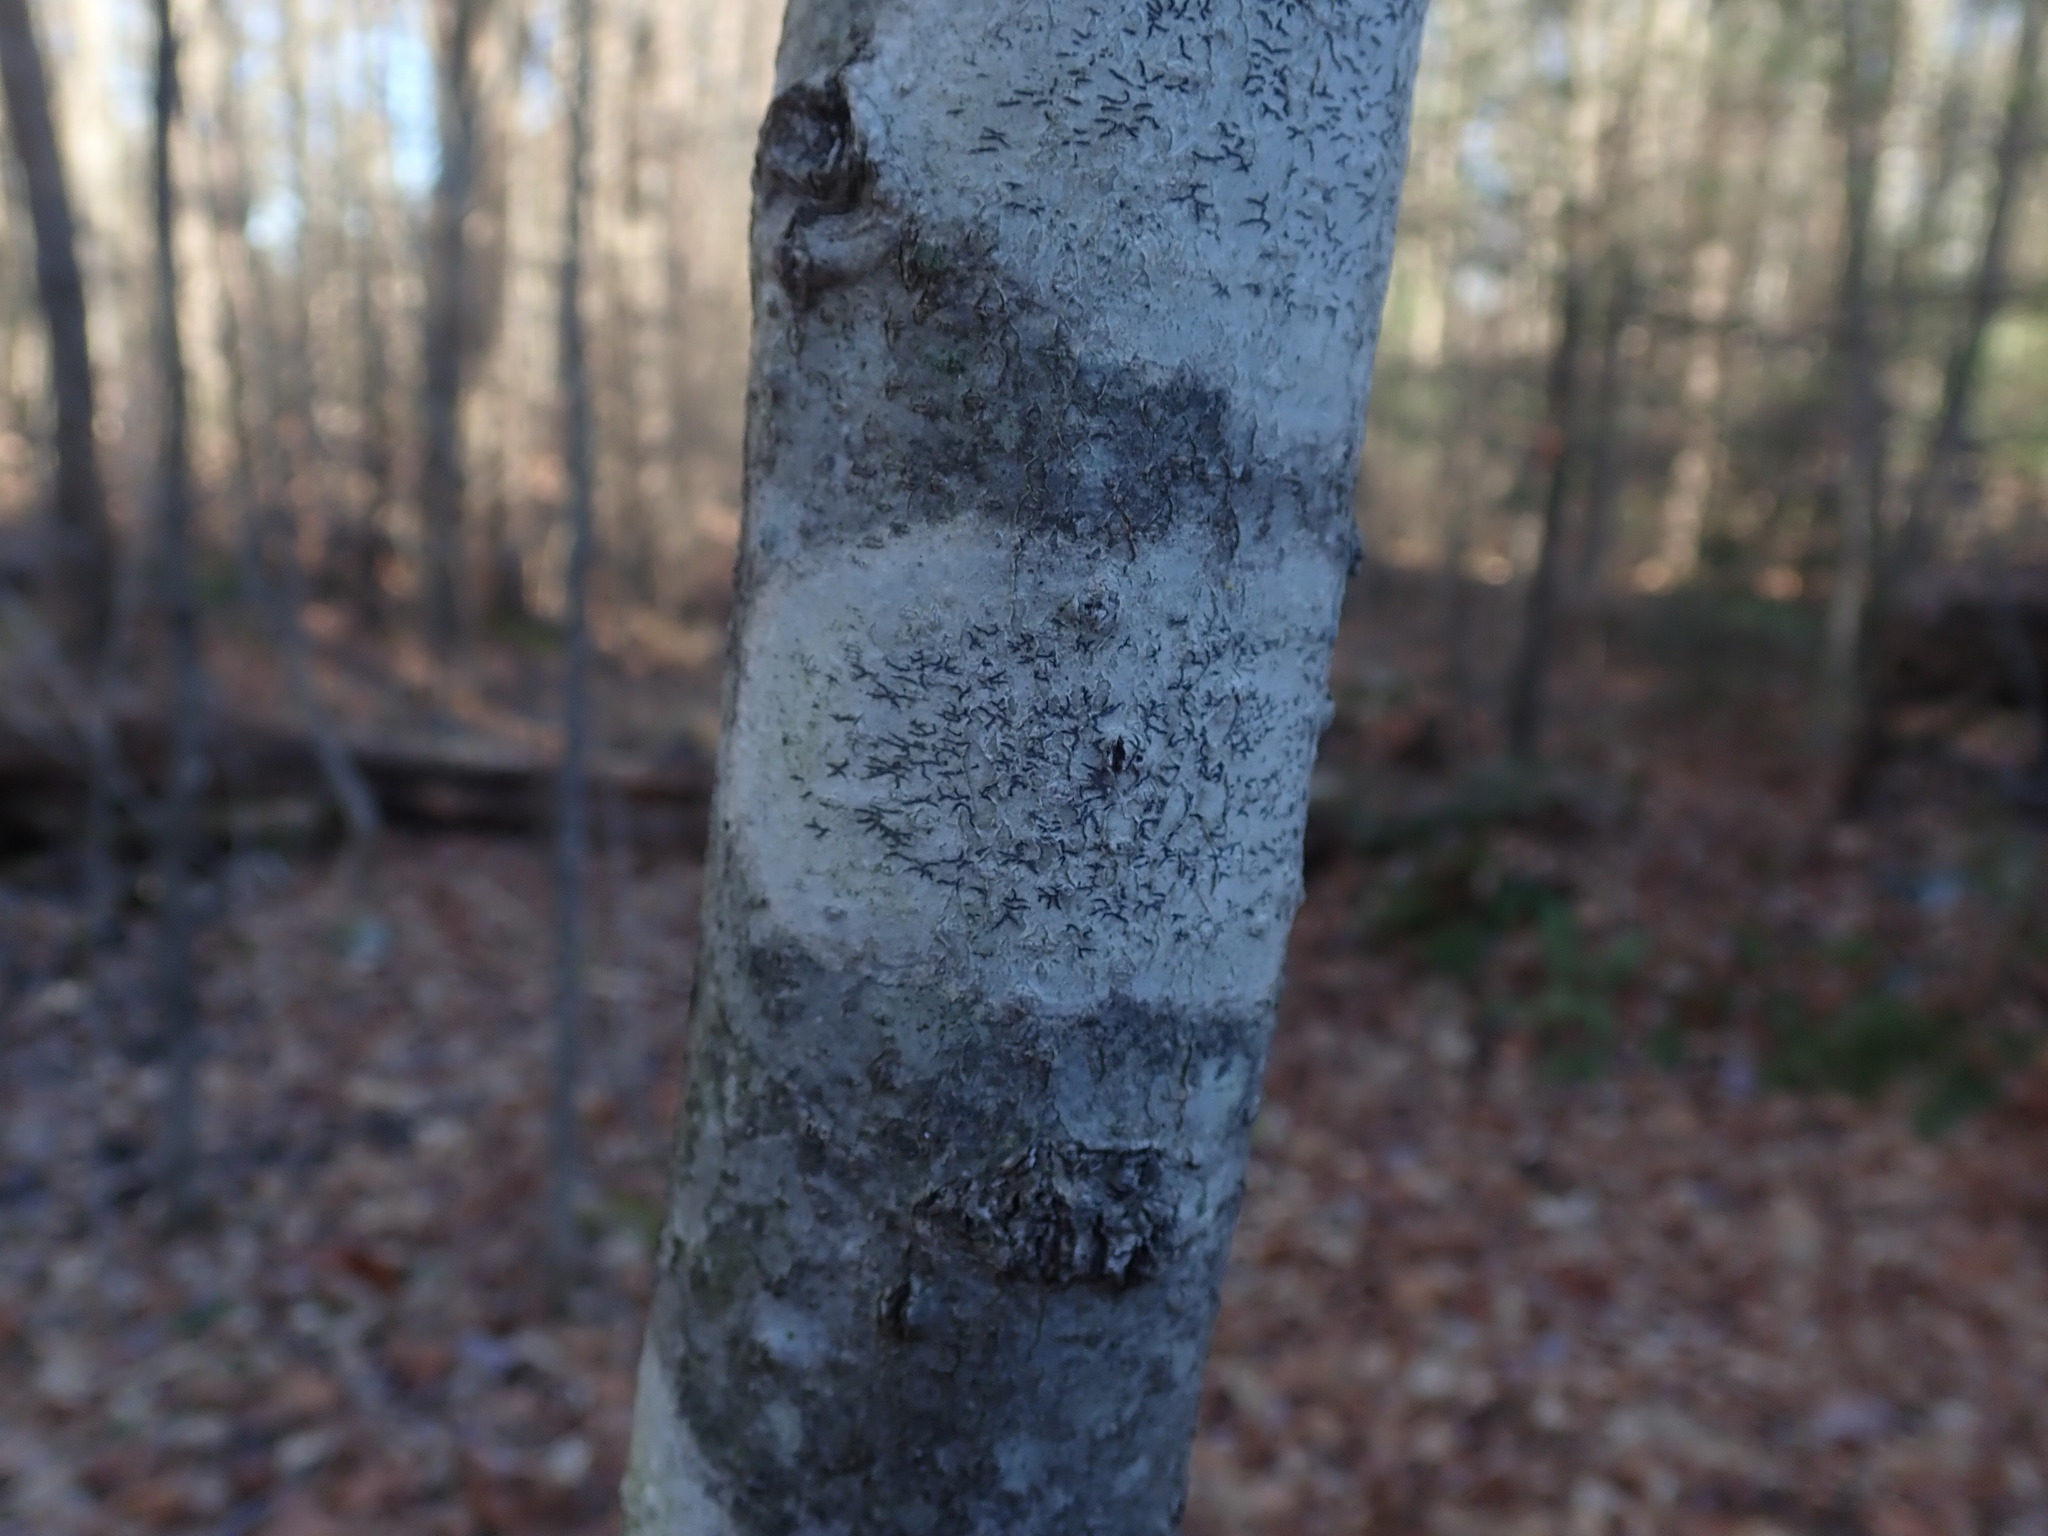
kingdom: Fungi
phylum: Ascomycota
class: Lecanoromycetes
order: Ostropales
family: Graphidaceae
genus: Graphis
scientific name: Graphis scripta
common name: Script lichen
